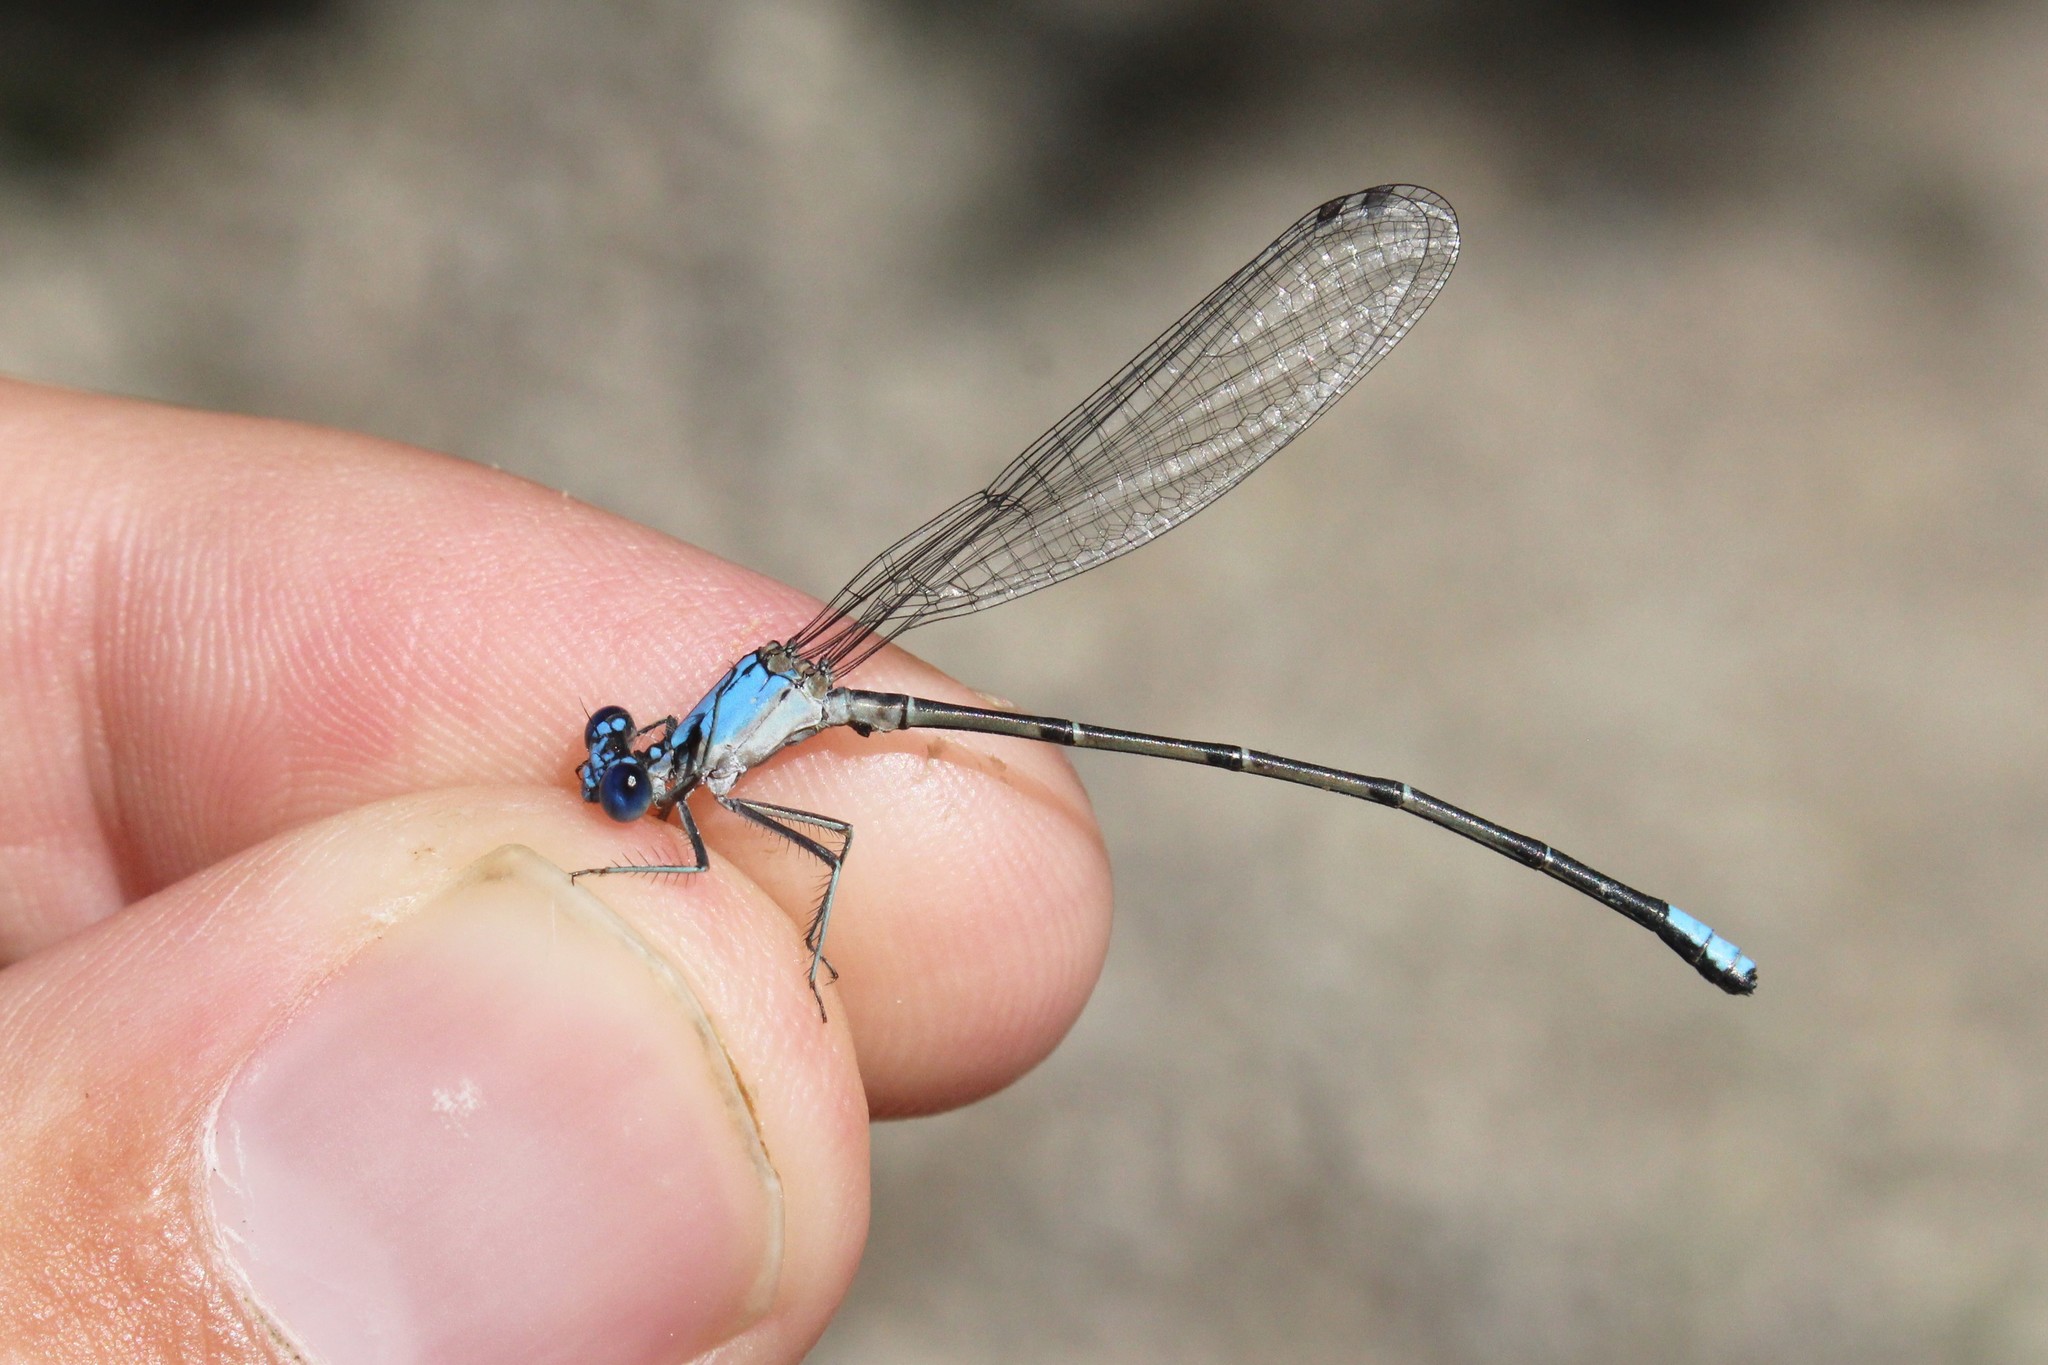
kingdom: Animalia
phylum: Arthropoda
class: Insecta
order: Odonata
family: Coenagrionidae
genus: Argia
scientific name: Argia apicalis
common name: Blue-fronted dancer
